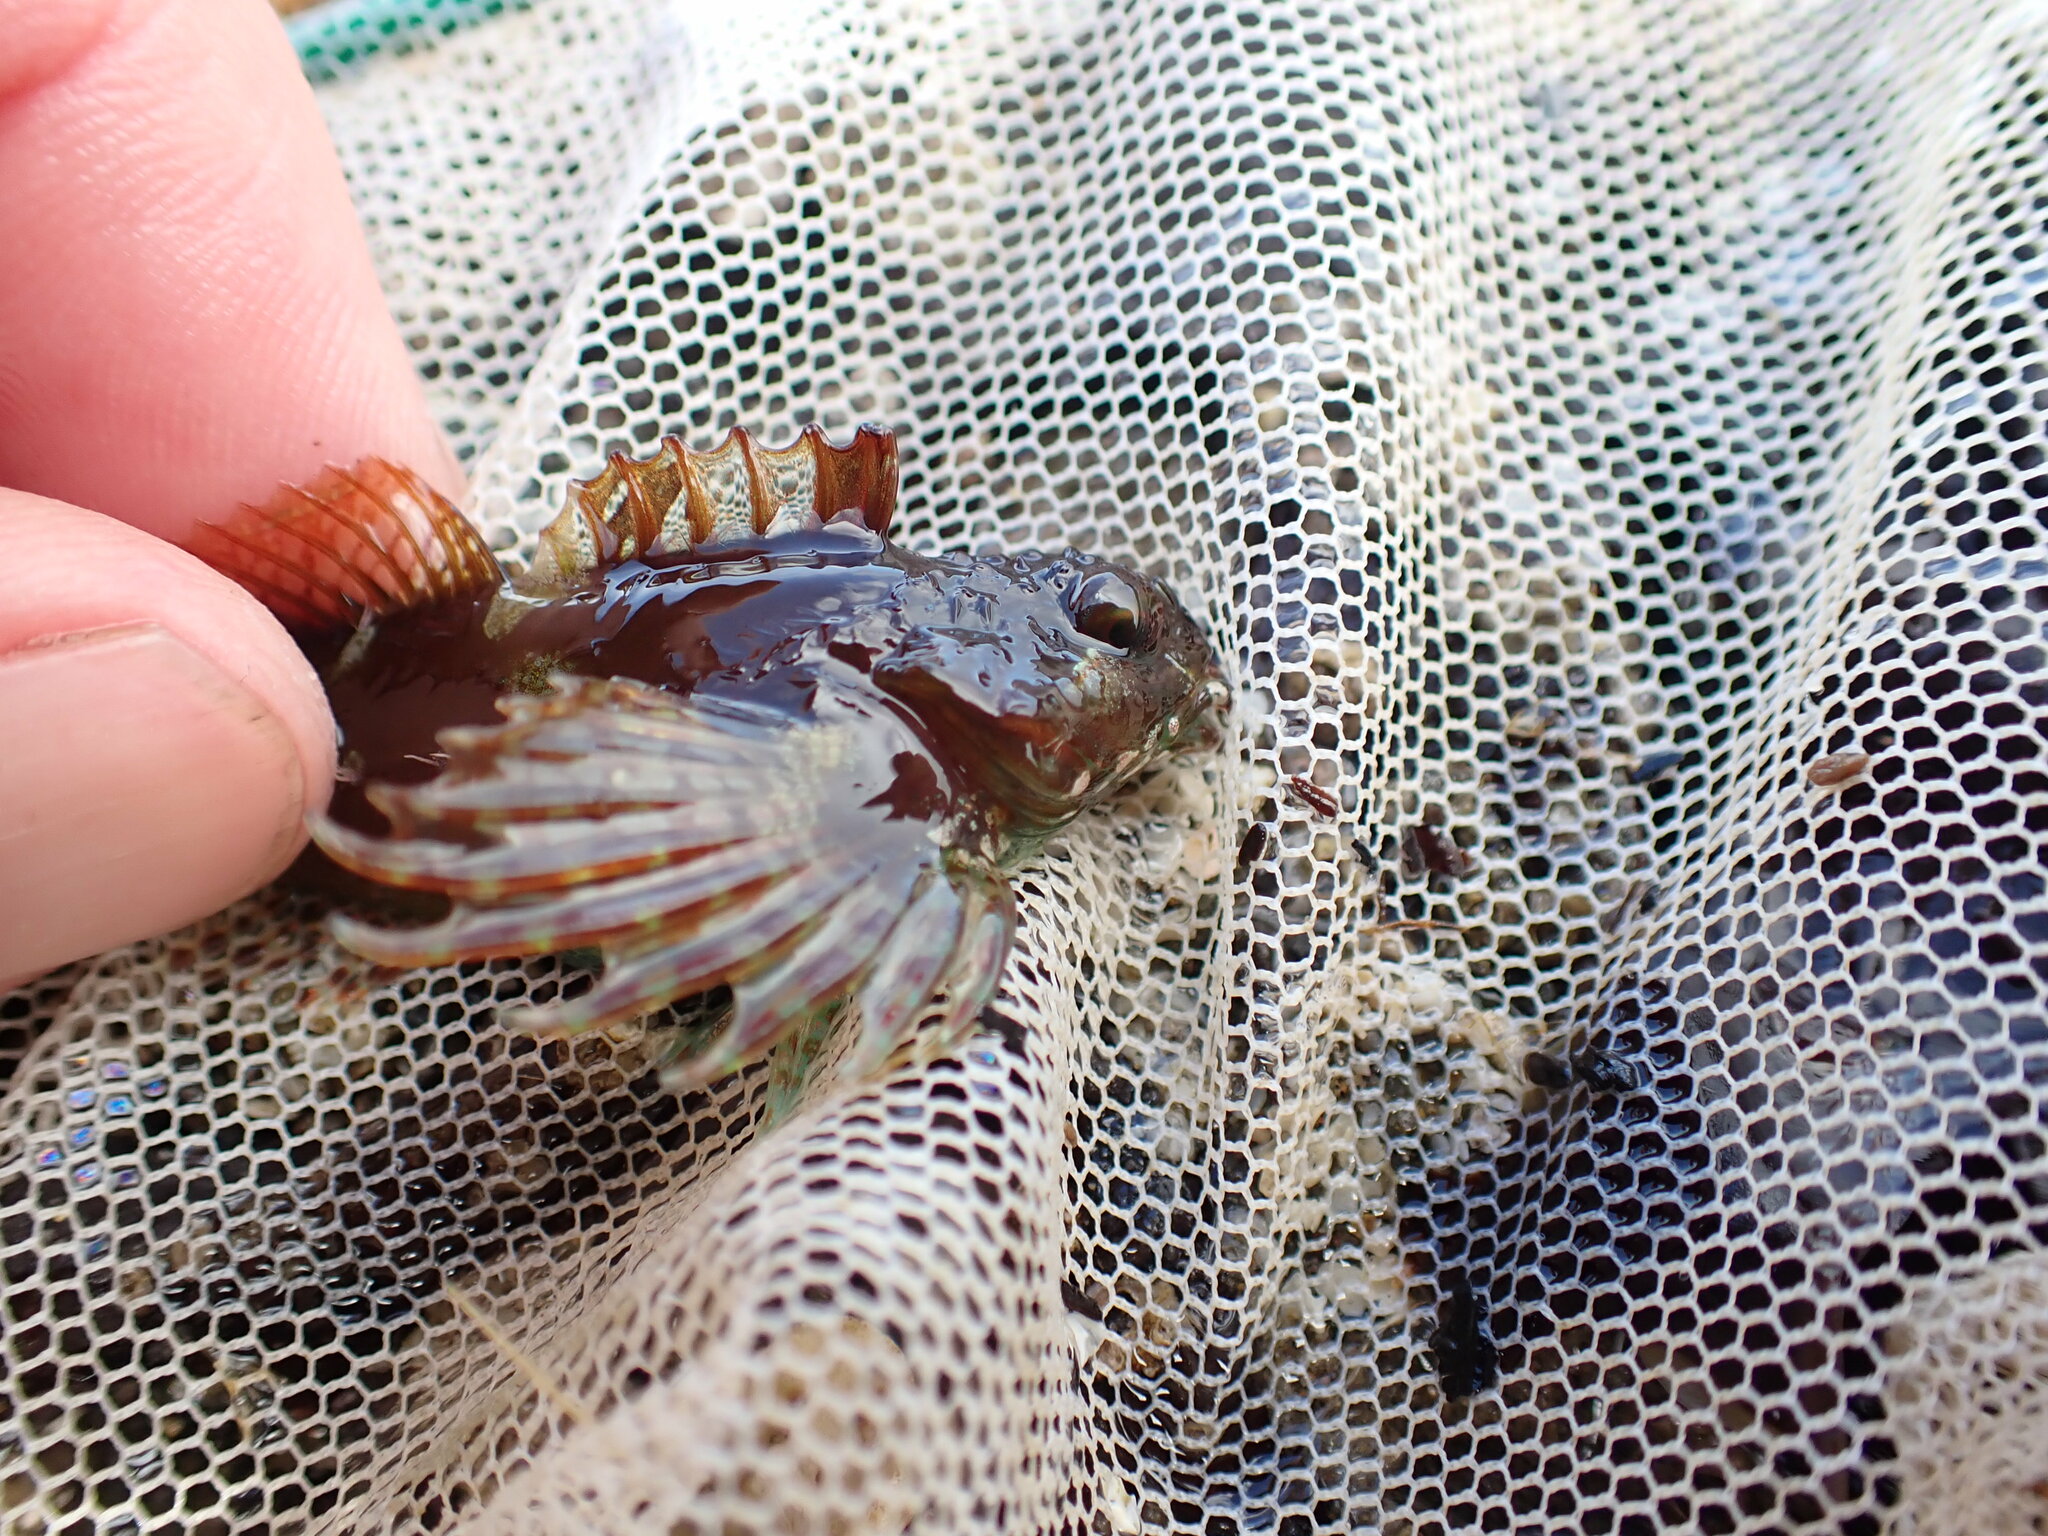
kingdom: Animalia
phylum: Chordata
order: Scorpaeniformes
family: Cottidae
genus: Oligocottus
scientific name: Oligocottus snyderi
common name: Fluffy sculpin
